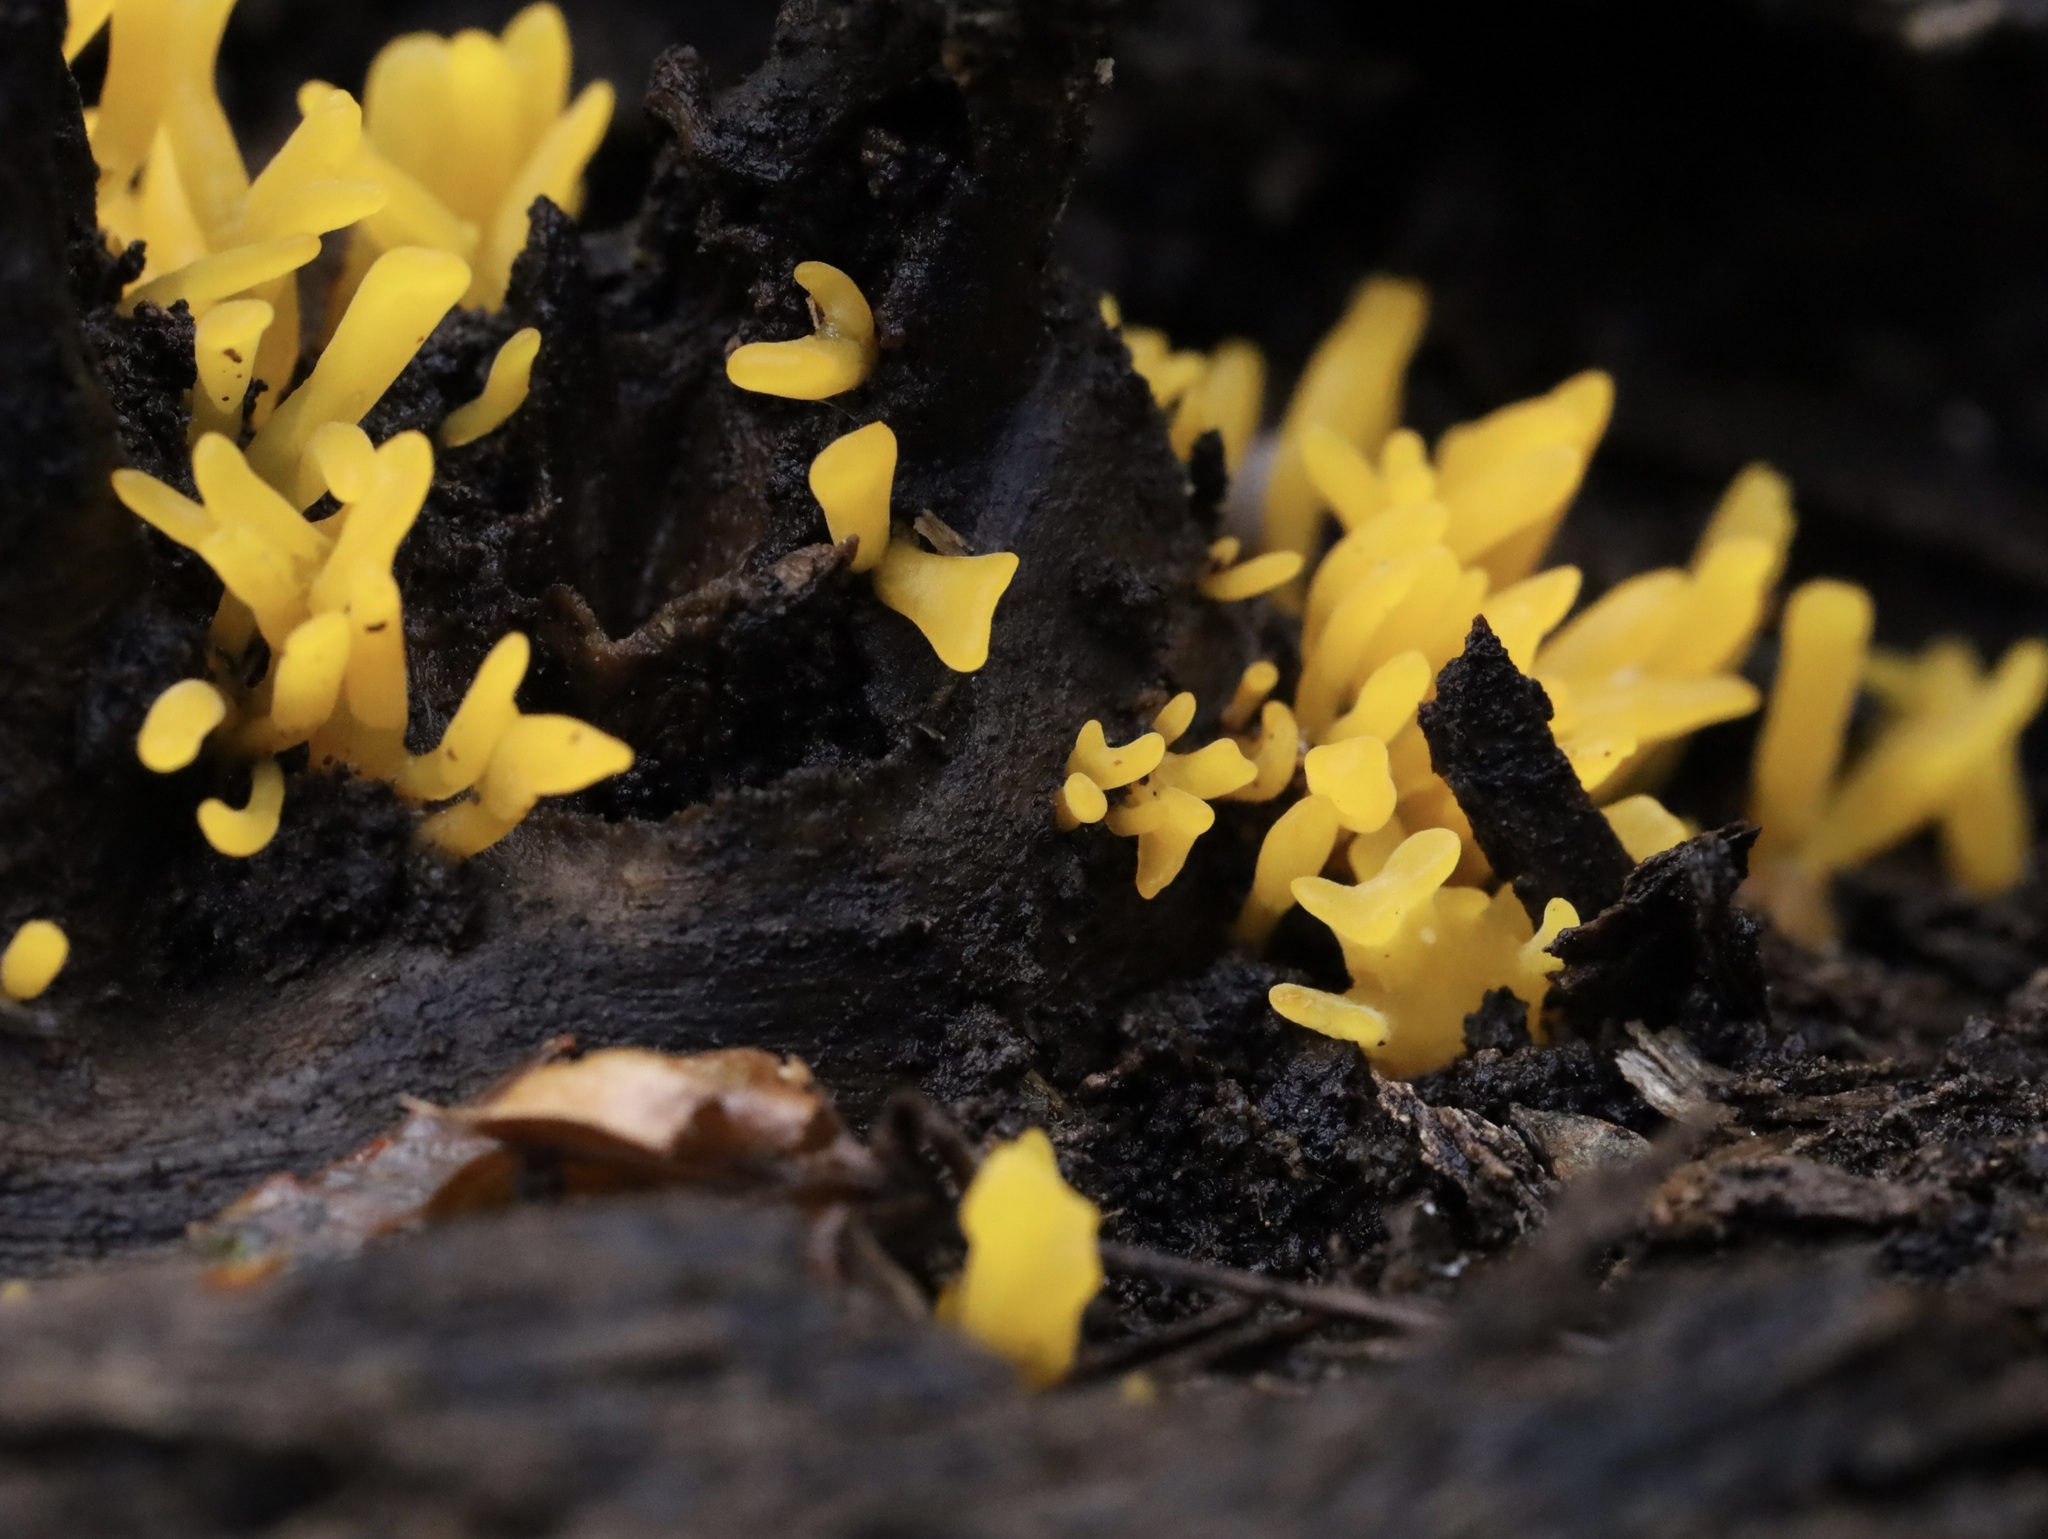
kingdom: Fungi
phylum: Basidiomycota
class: Dacrymycetes
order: Dacrymycetales
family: Dacrymycetaceae
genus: Calocera
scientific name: Calocera cornea
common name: Small stagshorn
